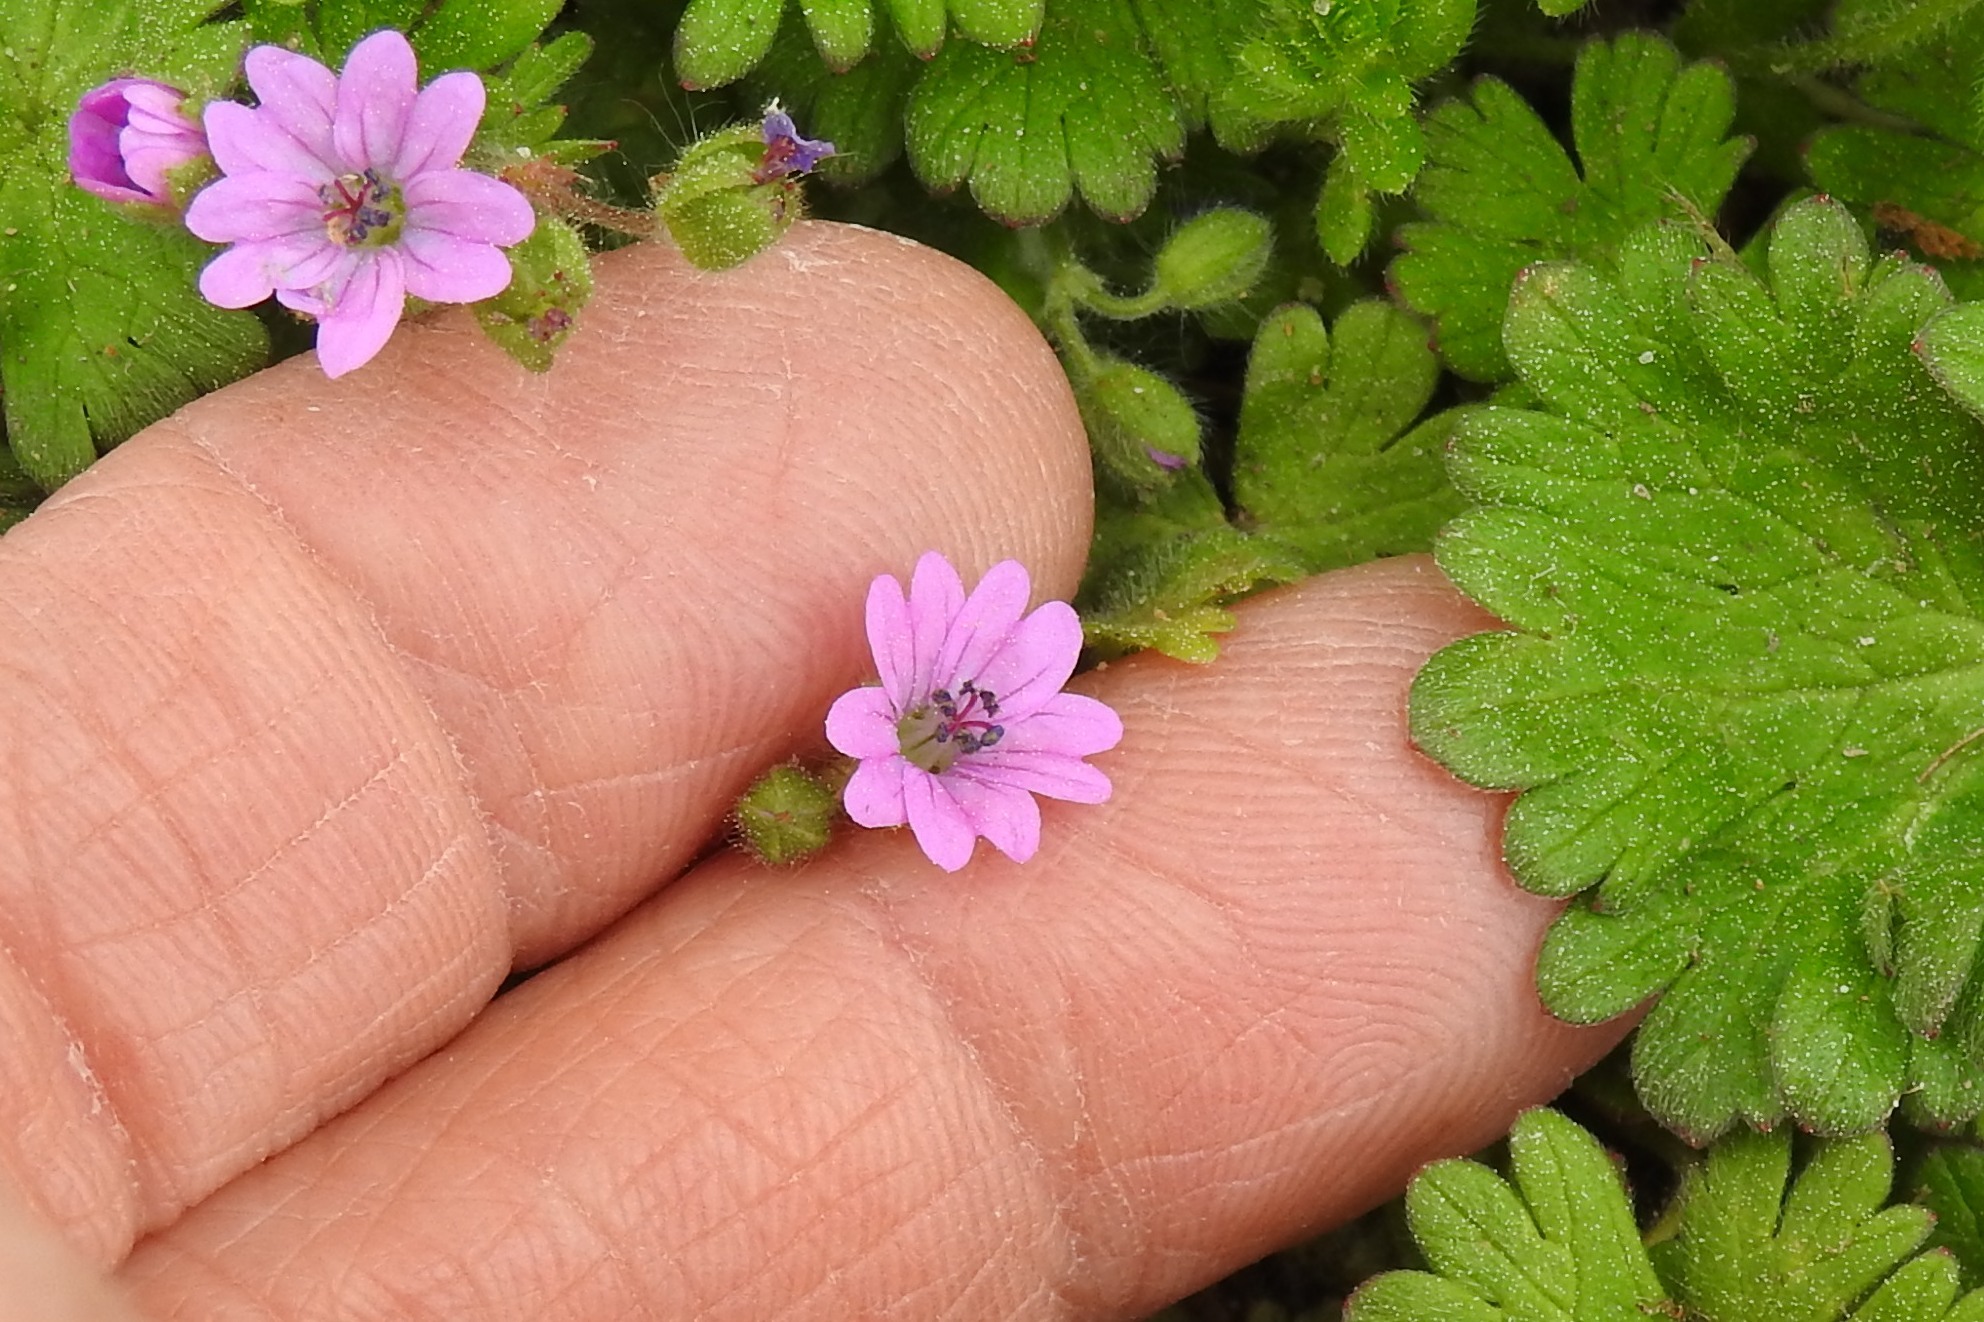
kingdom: Plantae
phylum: Tracheophyta
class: Magnoliopsida
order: Geraniales
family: Geraniaceae
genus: Geranium
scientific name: Geranium molle
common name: Dove's-foot crane's-bill
